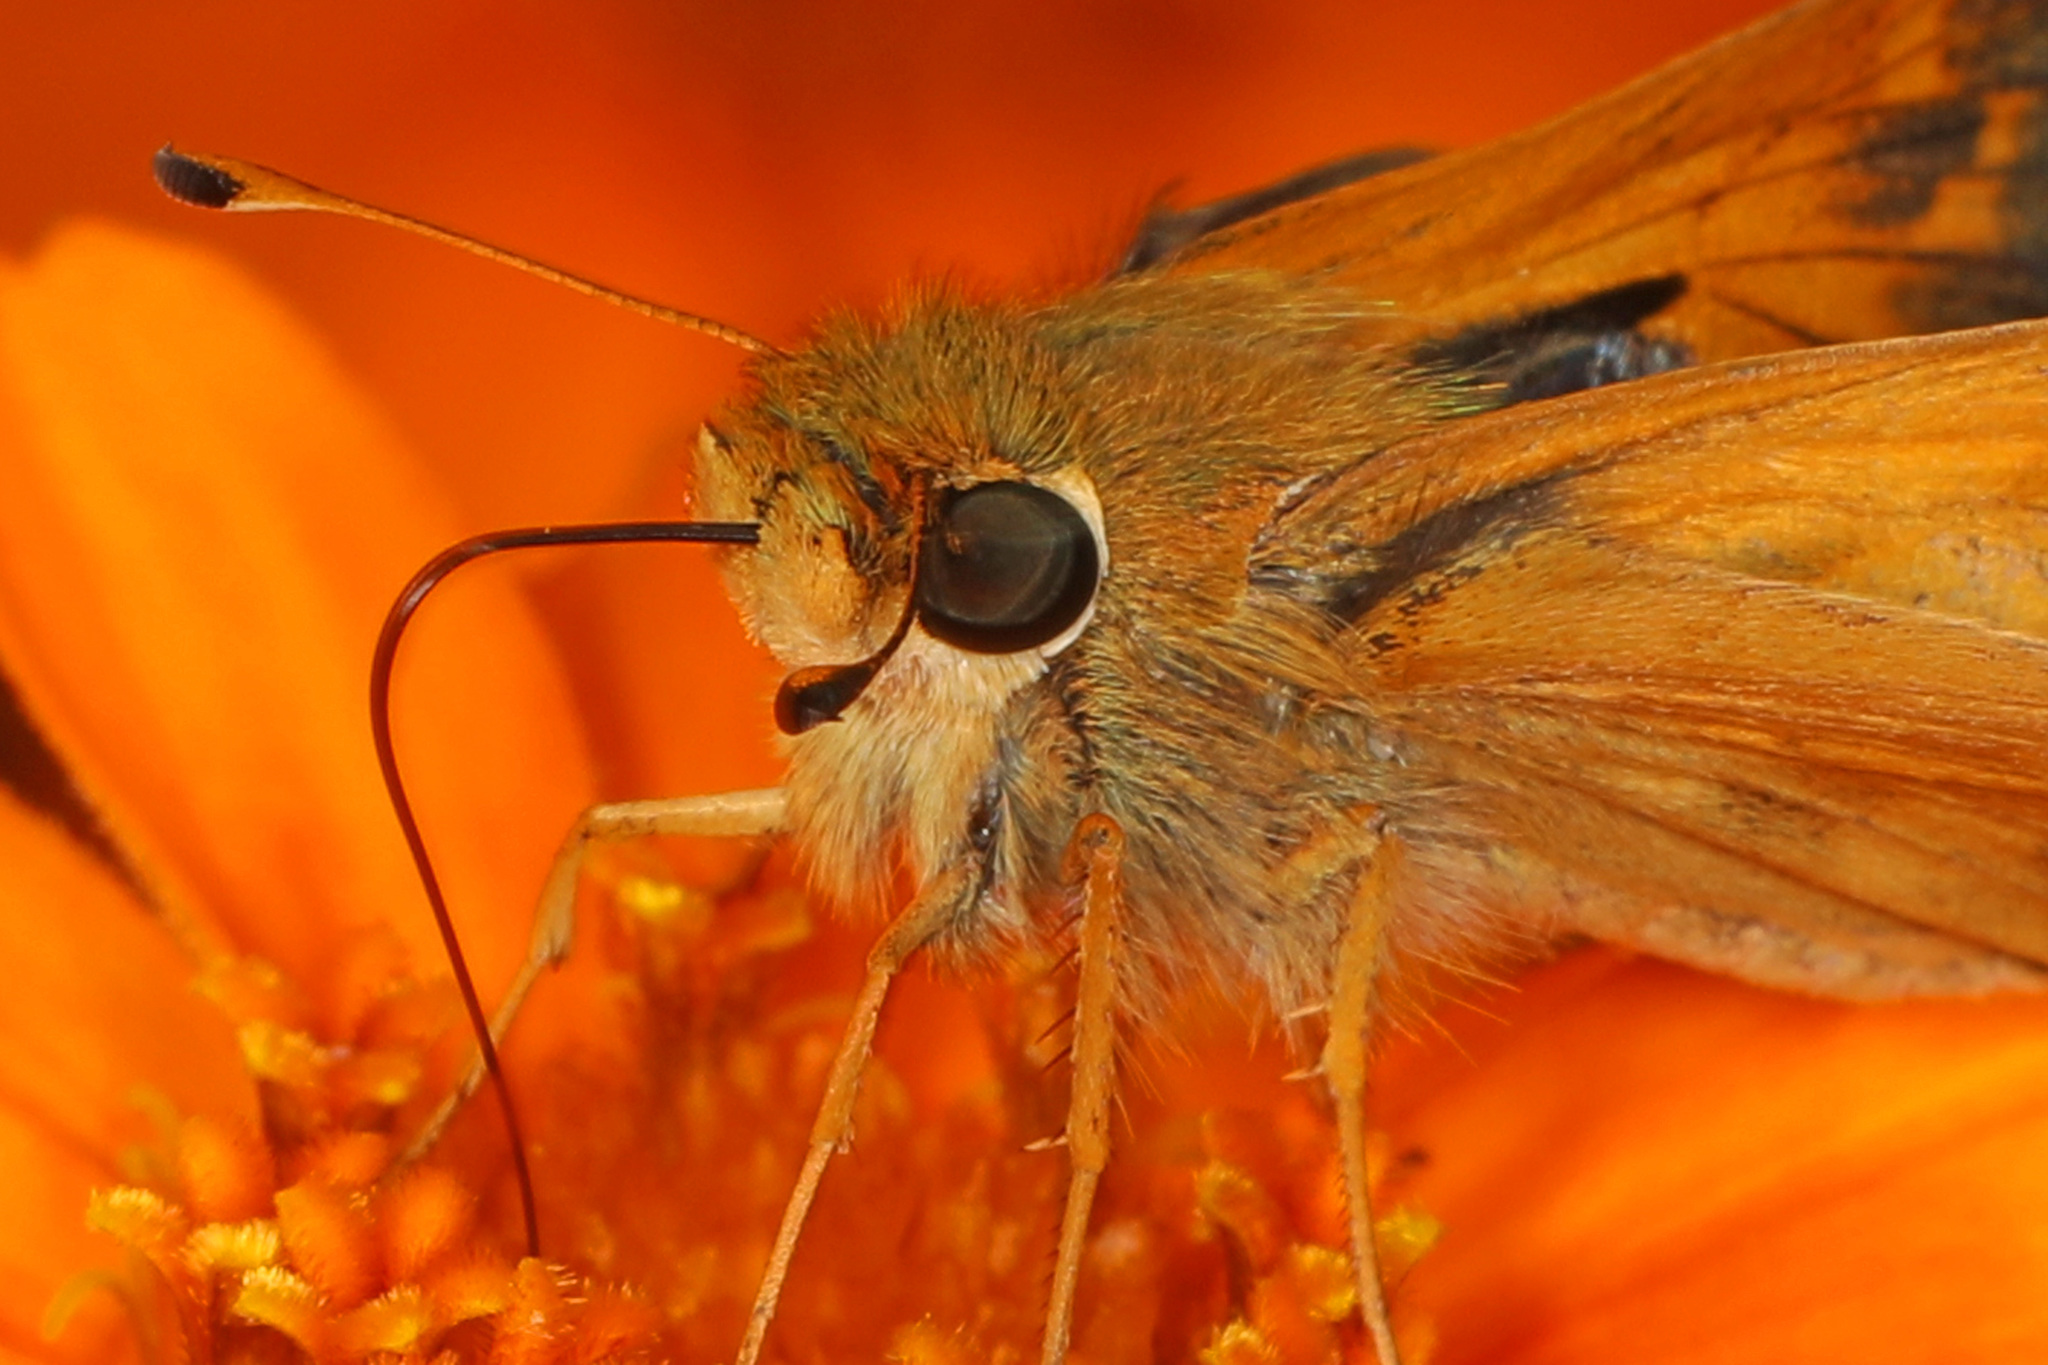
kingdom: Animalia
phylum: Arthropoda
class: Insecta
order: Lepidoptera
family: Hesperiidae
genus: Atalopedes
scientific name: Atalopedes
